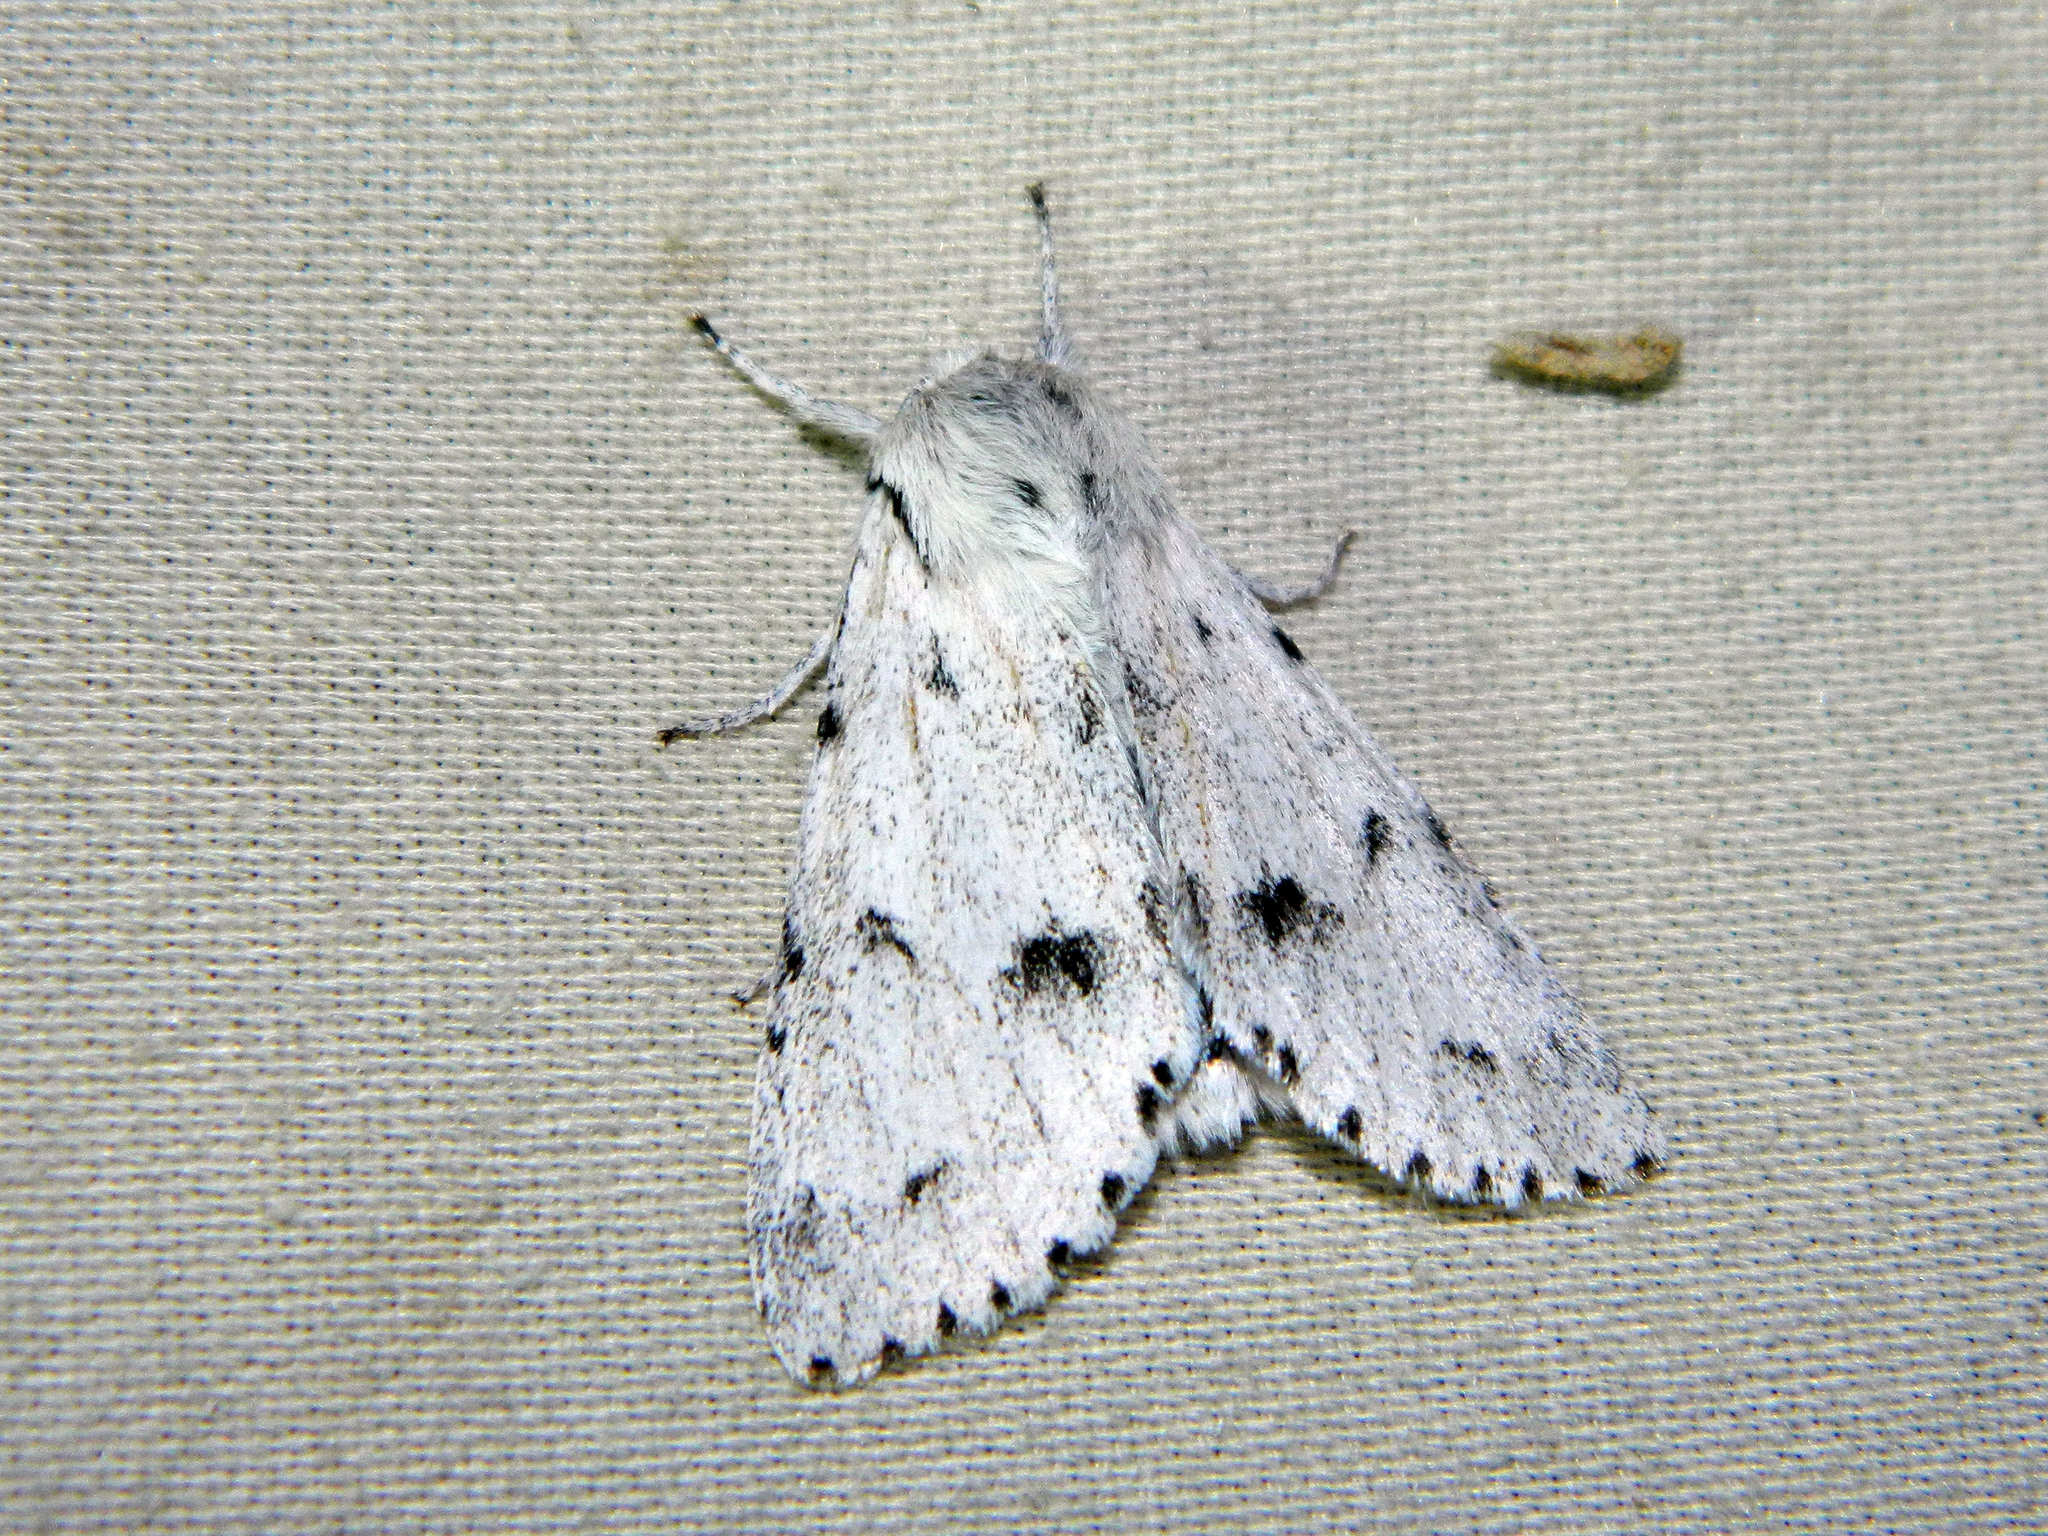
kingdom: Animalia
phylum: Arthropoda
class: Insecta
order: Lepidoptera
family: Noctuidae
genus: Acronicta
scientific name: Acronicta vulpina
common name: Miller dagger
